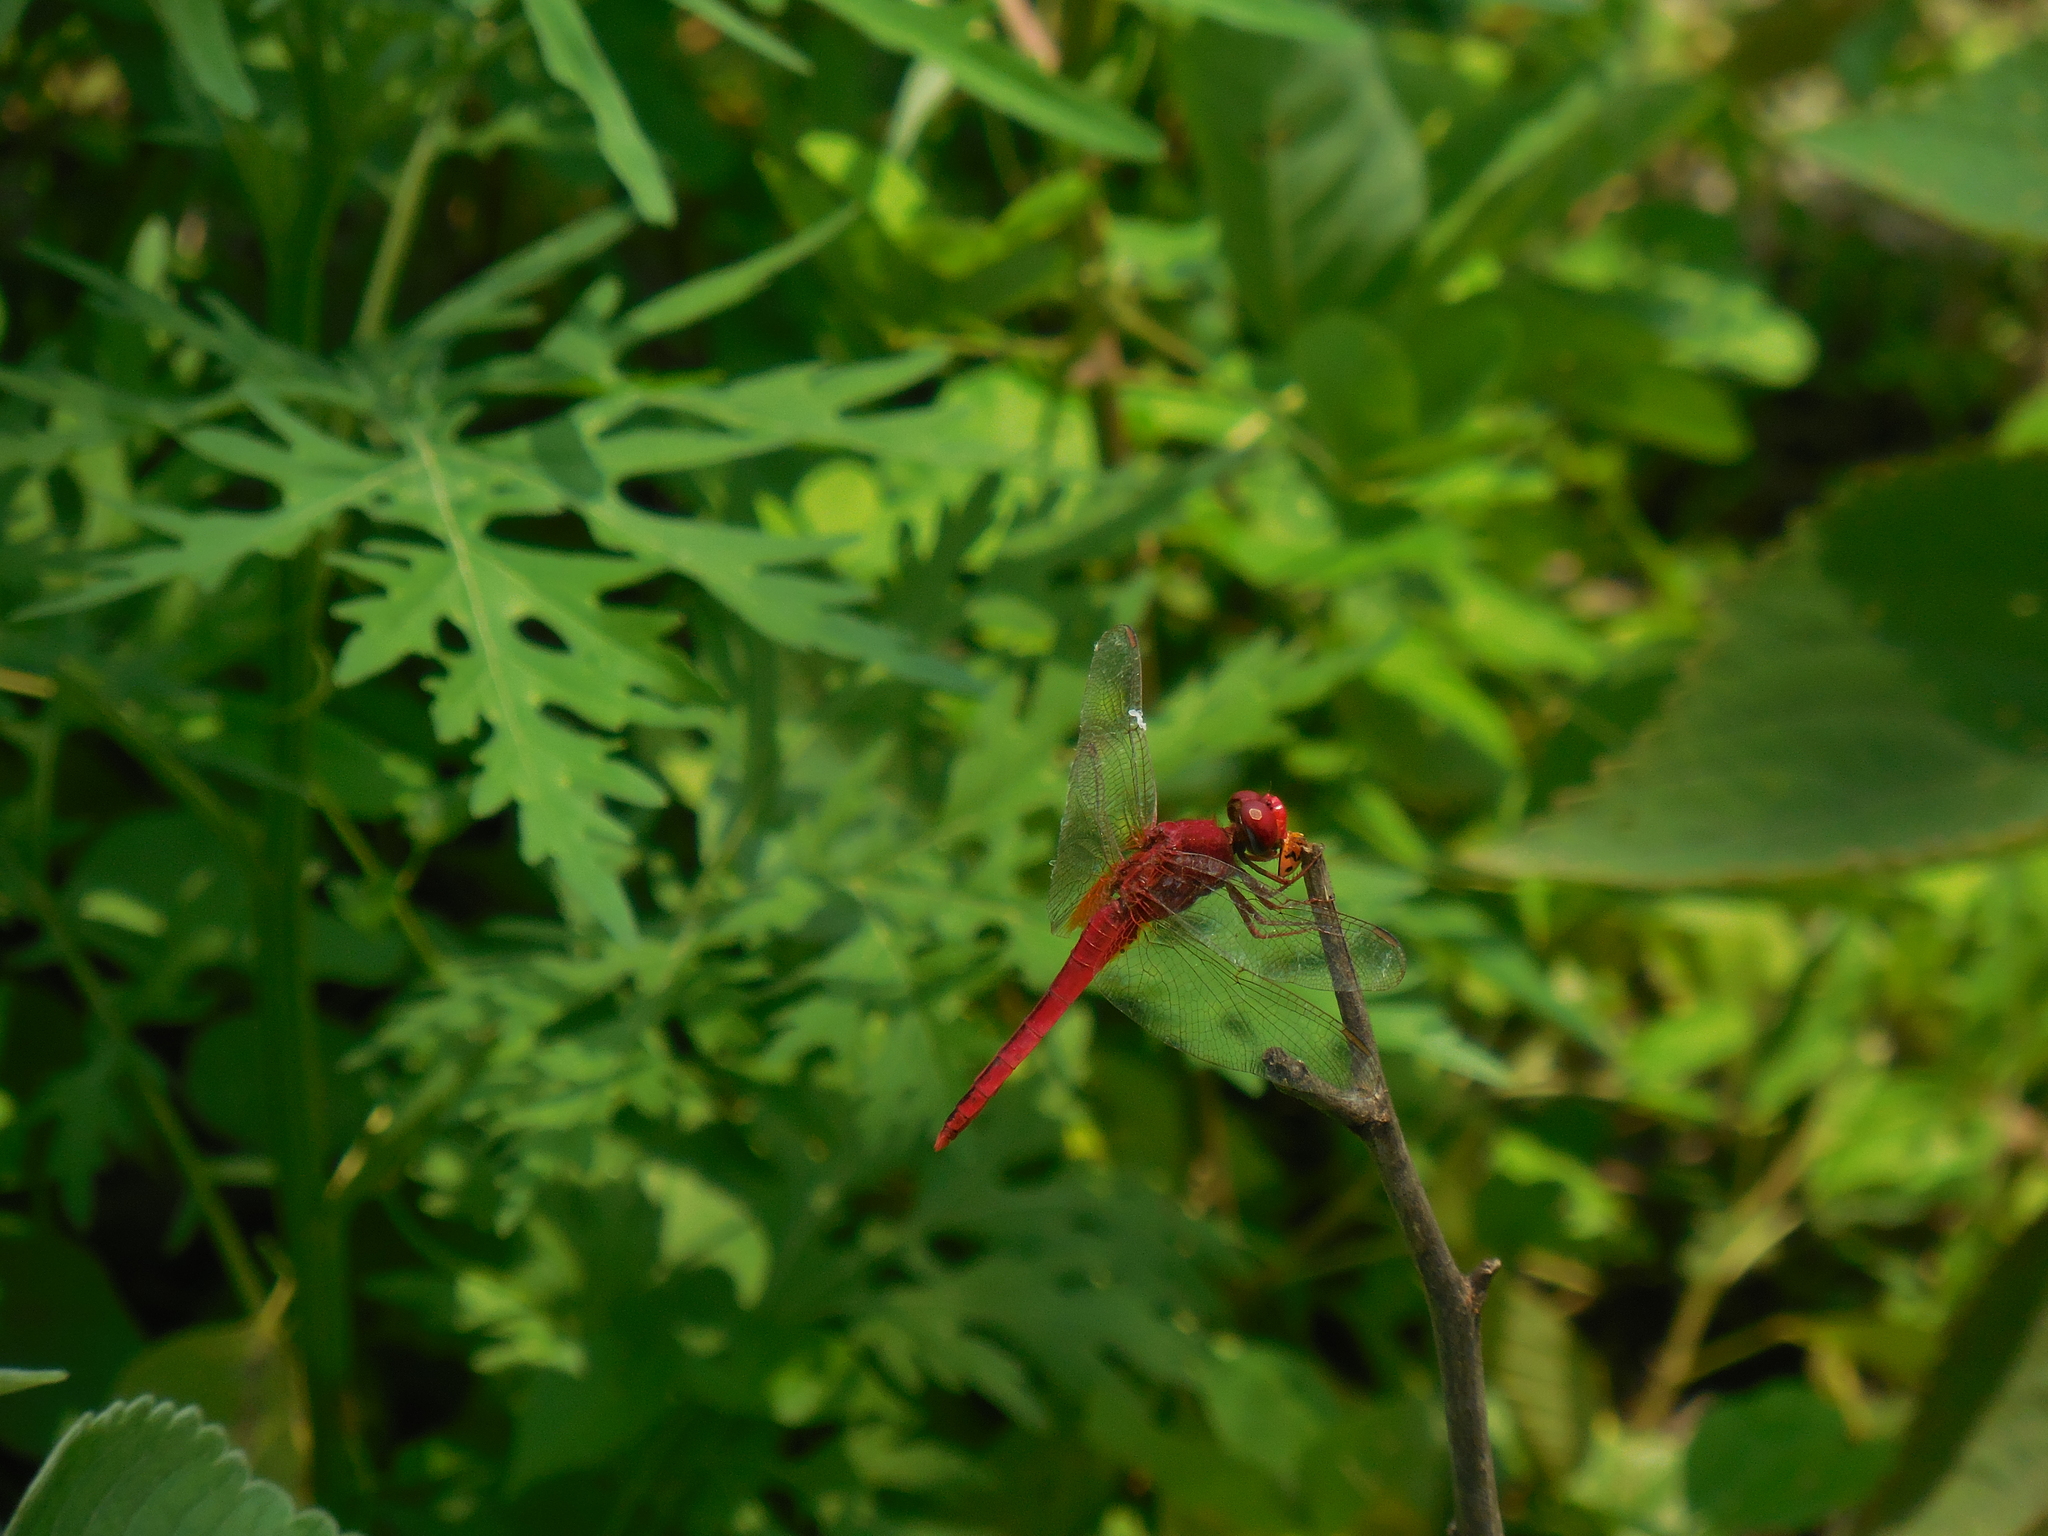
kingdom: Animalia
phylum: Arthropoda
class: Insecta
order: Odonata
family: Libellulidae
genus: Crocothemis
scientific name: Crocothemis servilia
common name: Scarlet skimmer
